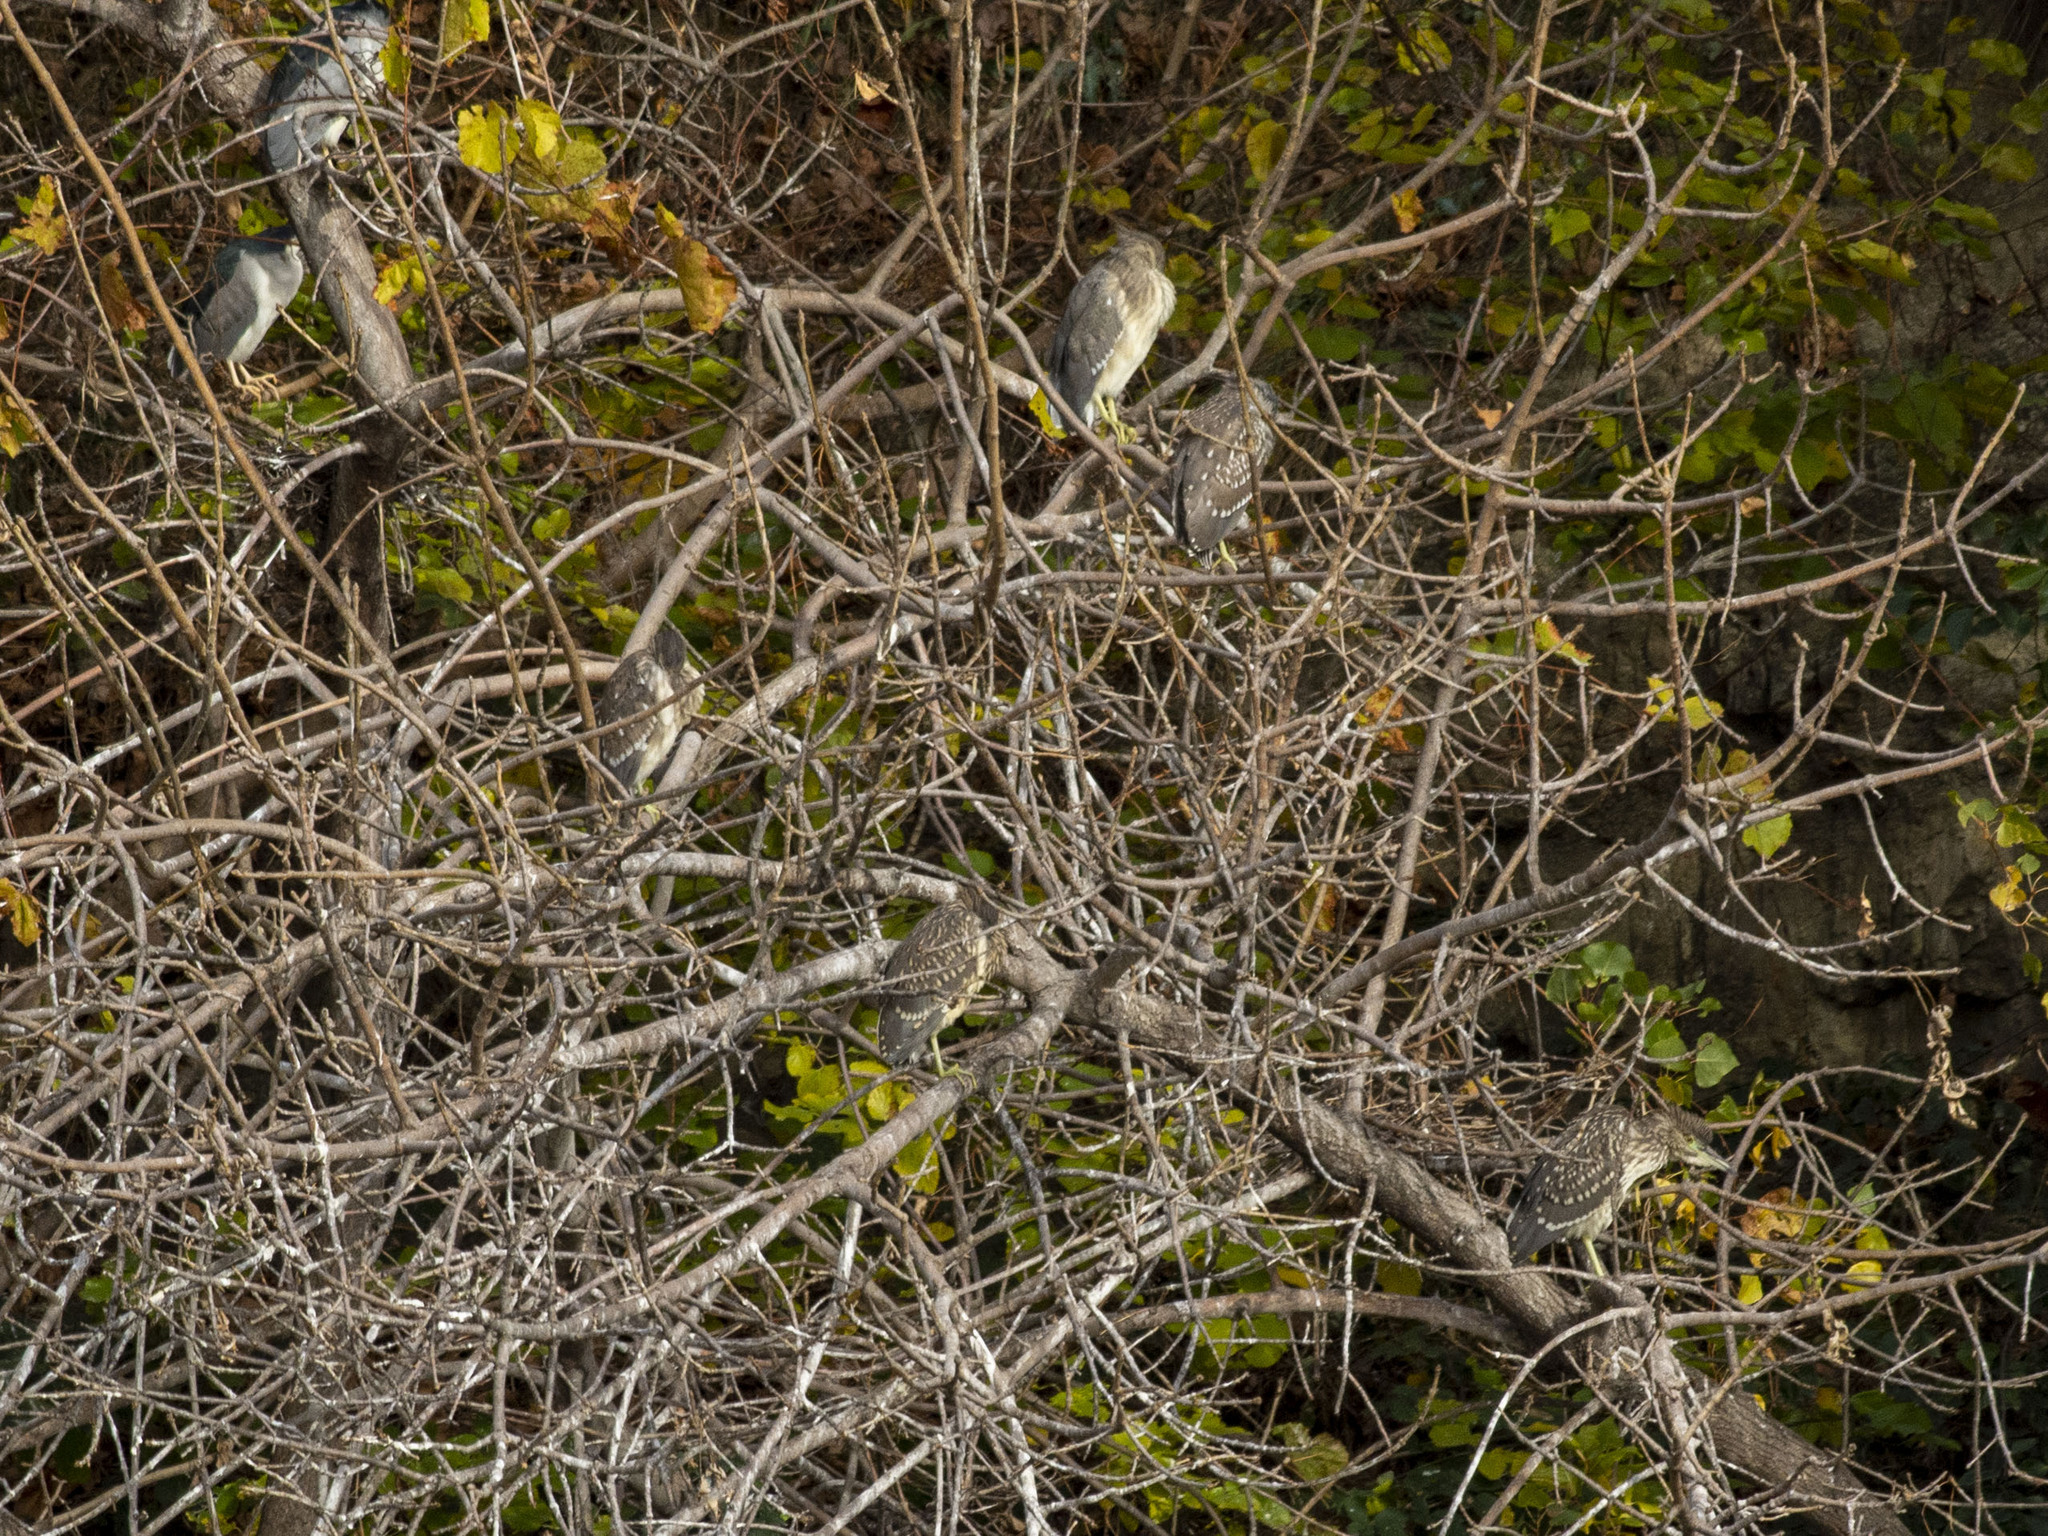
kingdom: Animalia
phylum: Chordata
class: Aves
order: Pelecaniformes
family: Ardeidae
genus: Nycticorax
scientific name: Nycticorax nycticorax
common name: Black-crowned night heron
